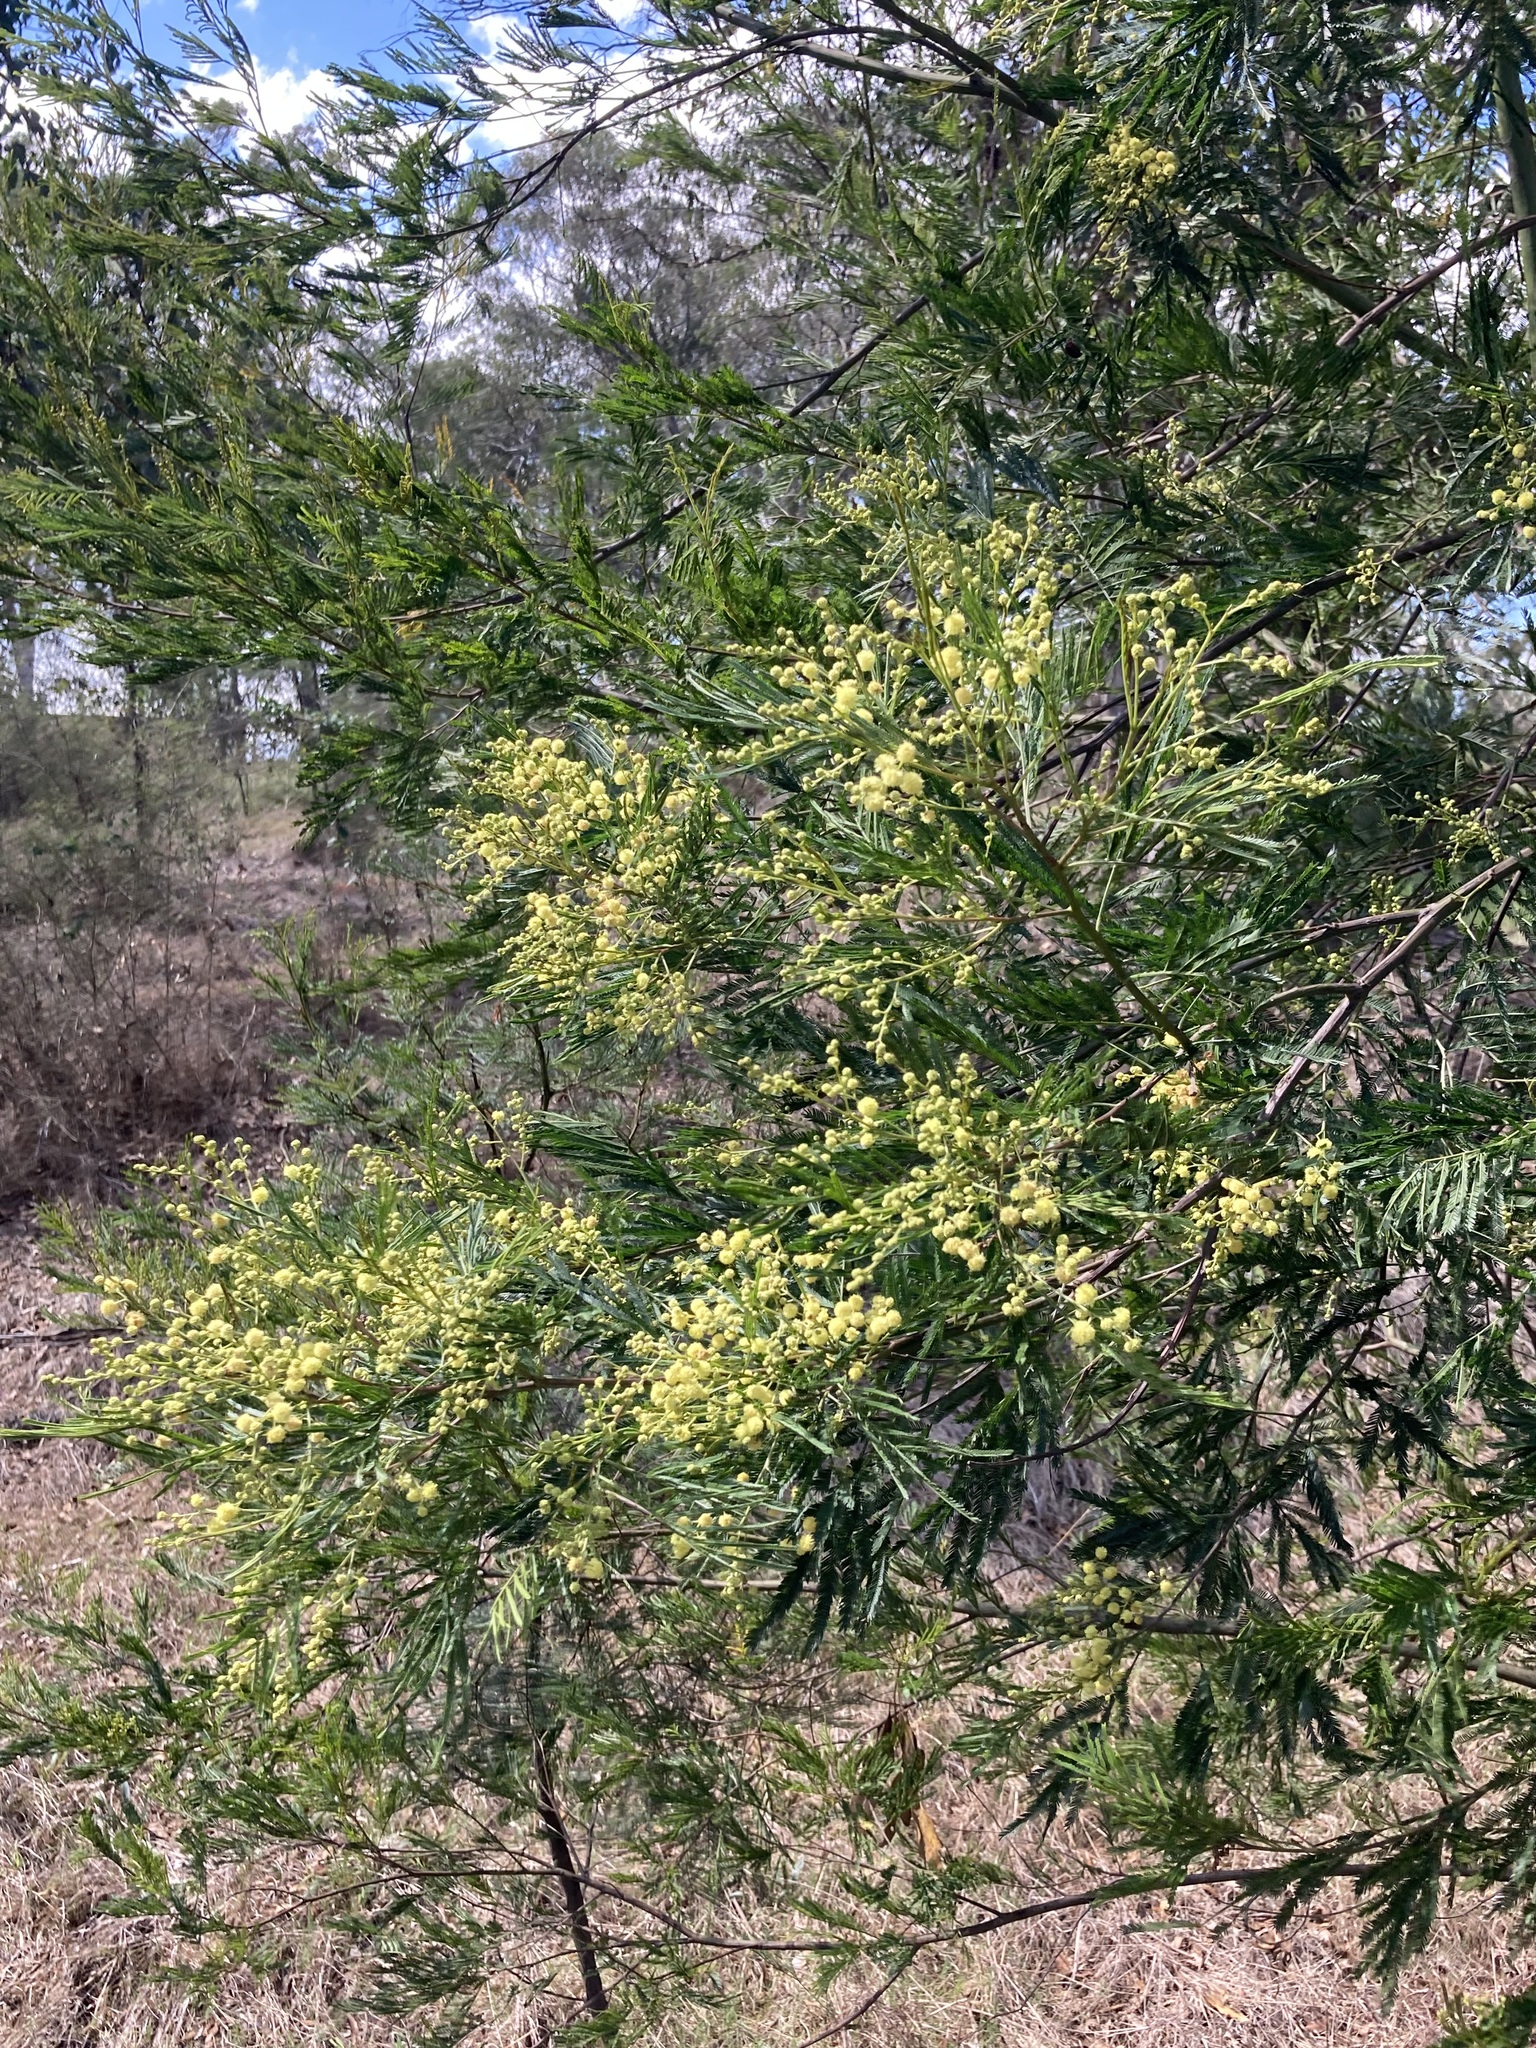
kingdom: Plantae
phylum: Tracheophyta
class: Magnoliopsida
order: Fabales
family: Fabaceae
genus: Acacia
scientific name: Acacia parramattensis
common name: Sydney green wattle
